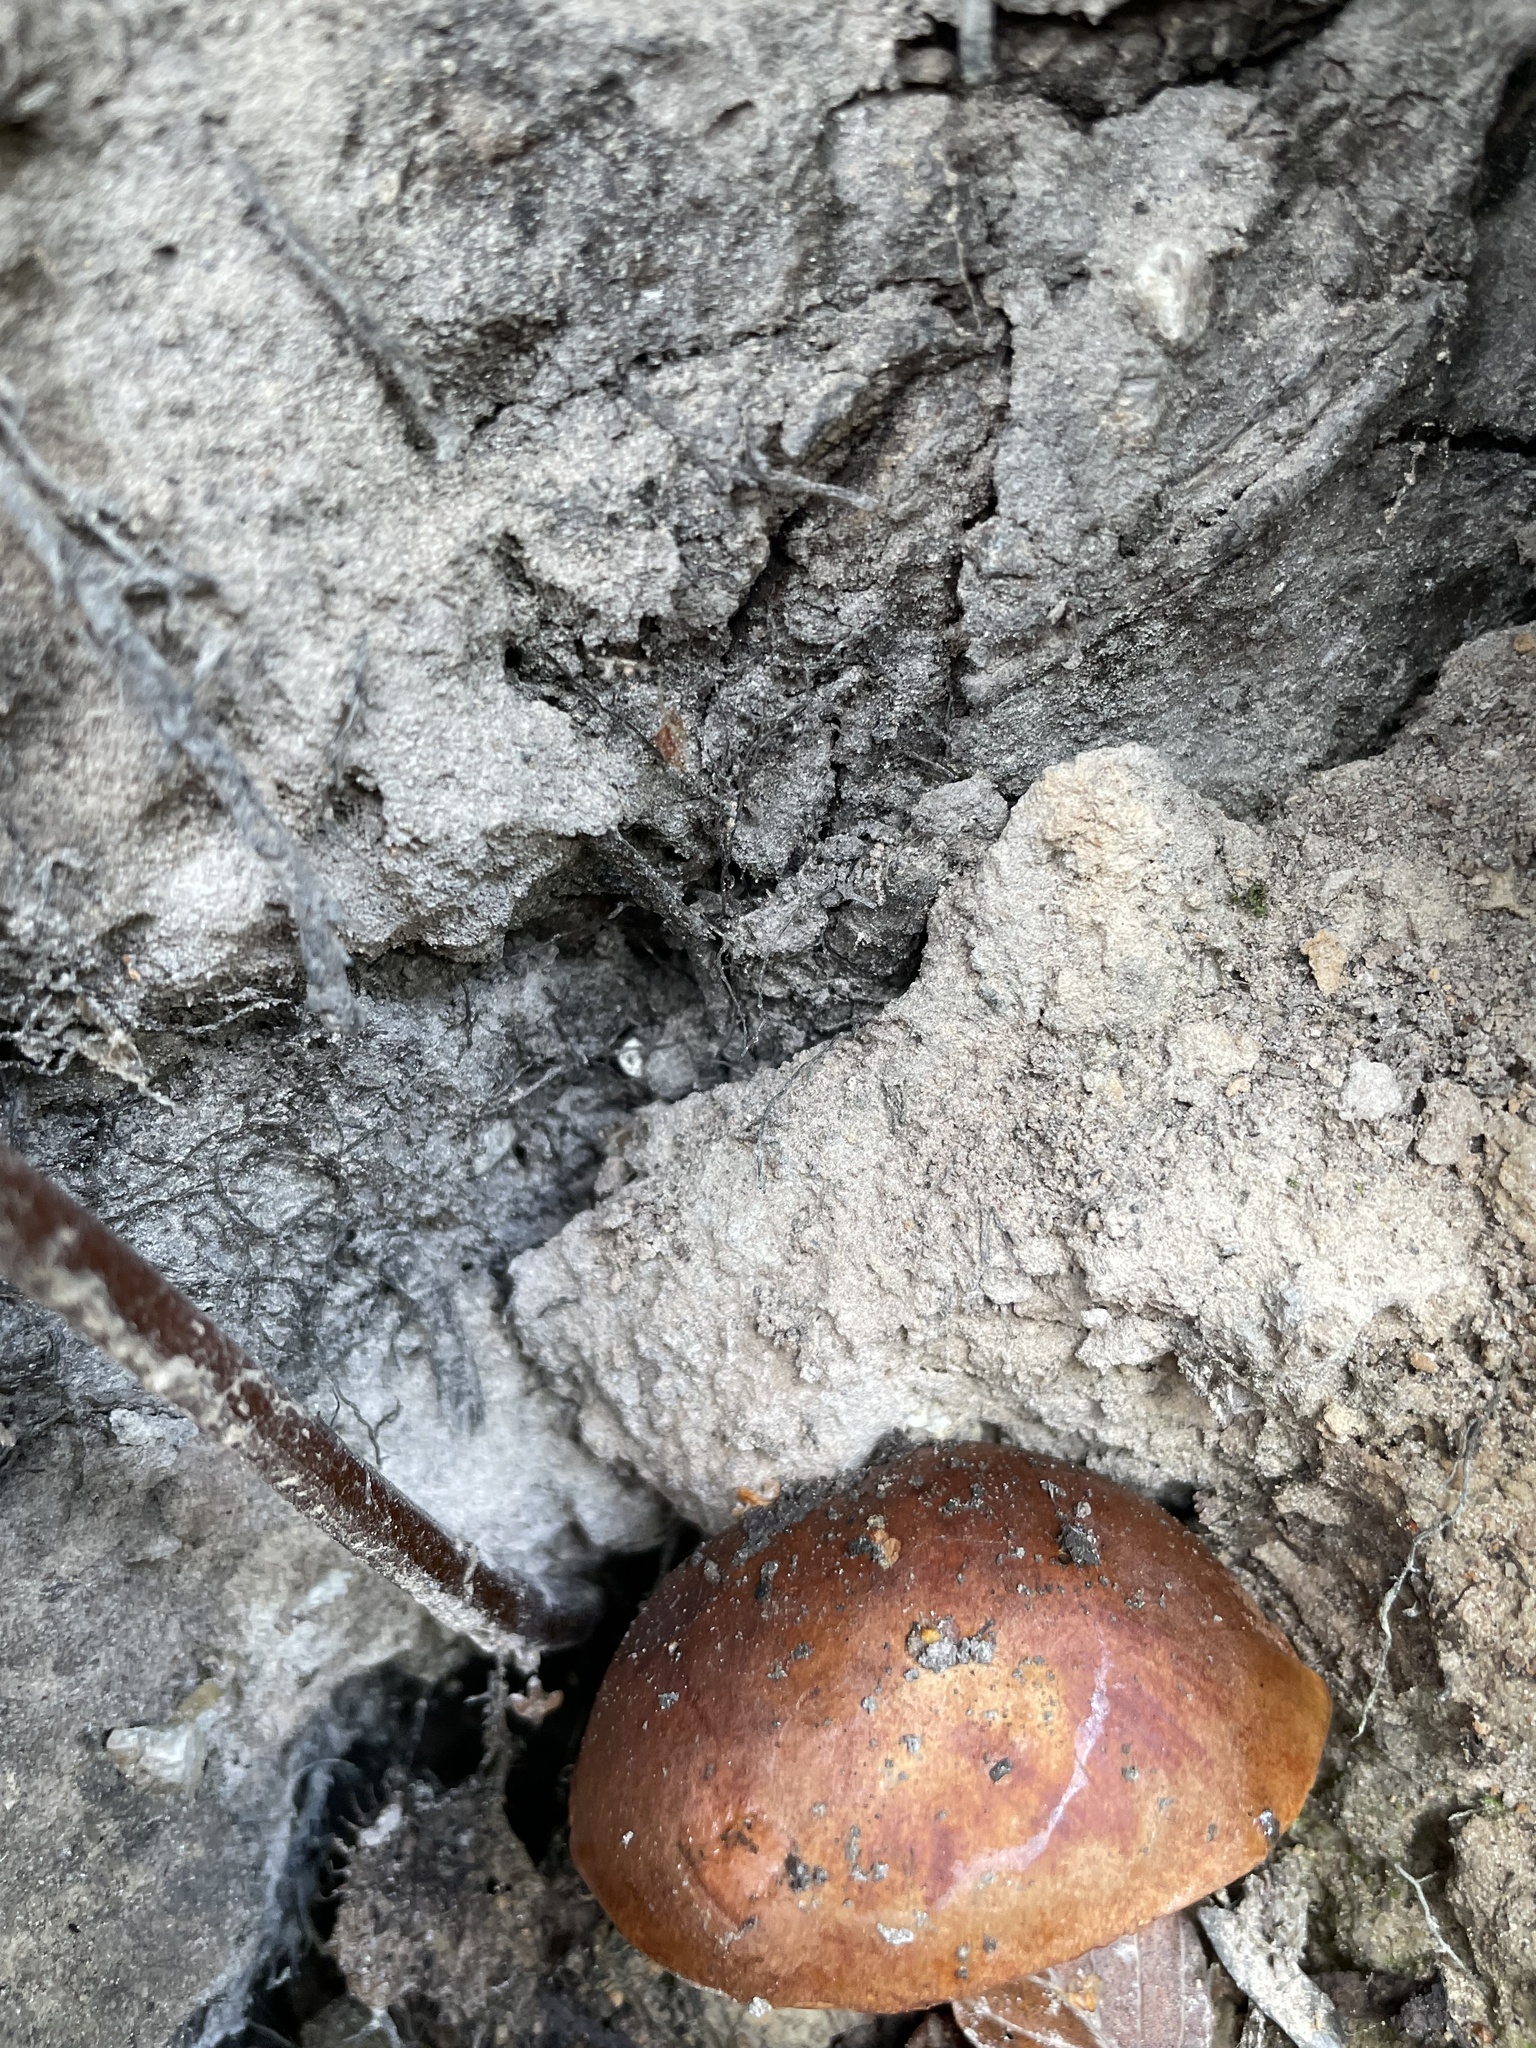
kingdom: Fungi
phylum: Basidiomycota
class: Agaricomycetes
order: Boletales
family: Boletaceae
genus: Imleria
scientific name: Imleria badia
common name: Bay bolete
